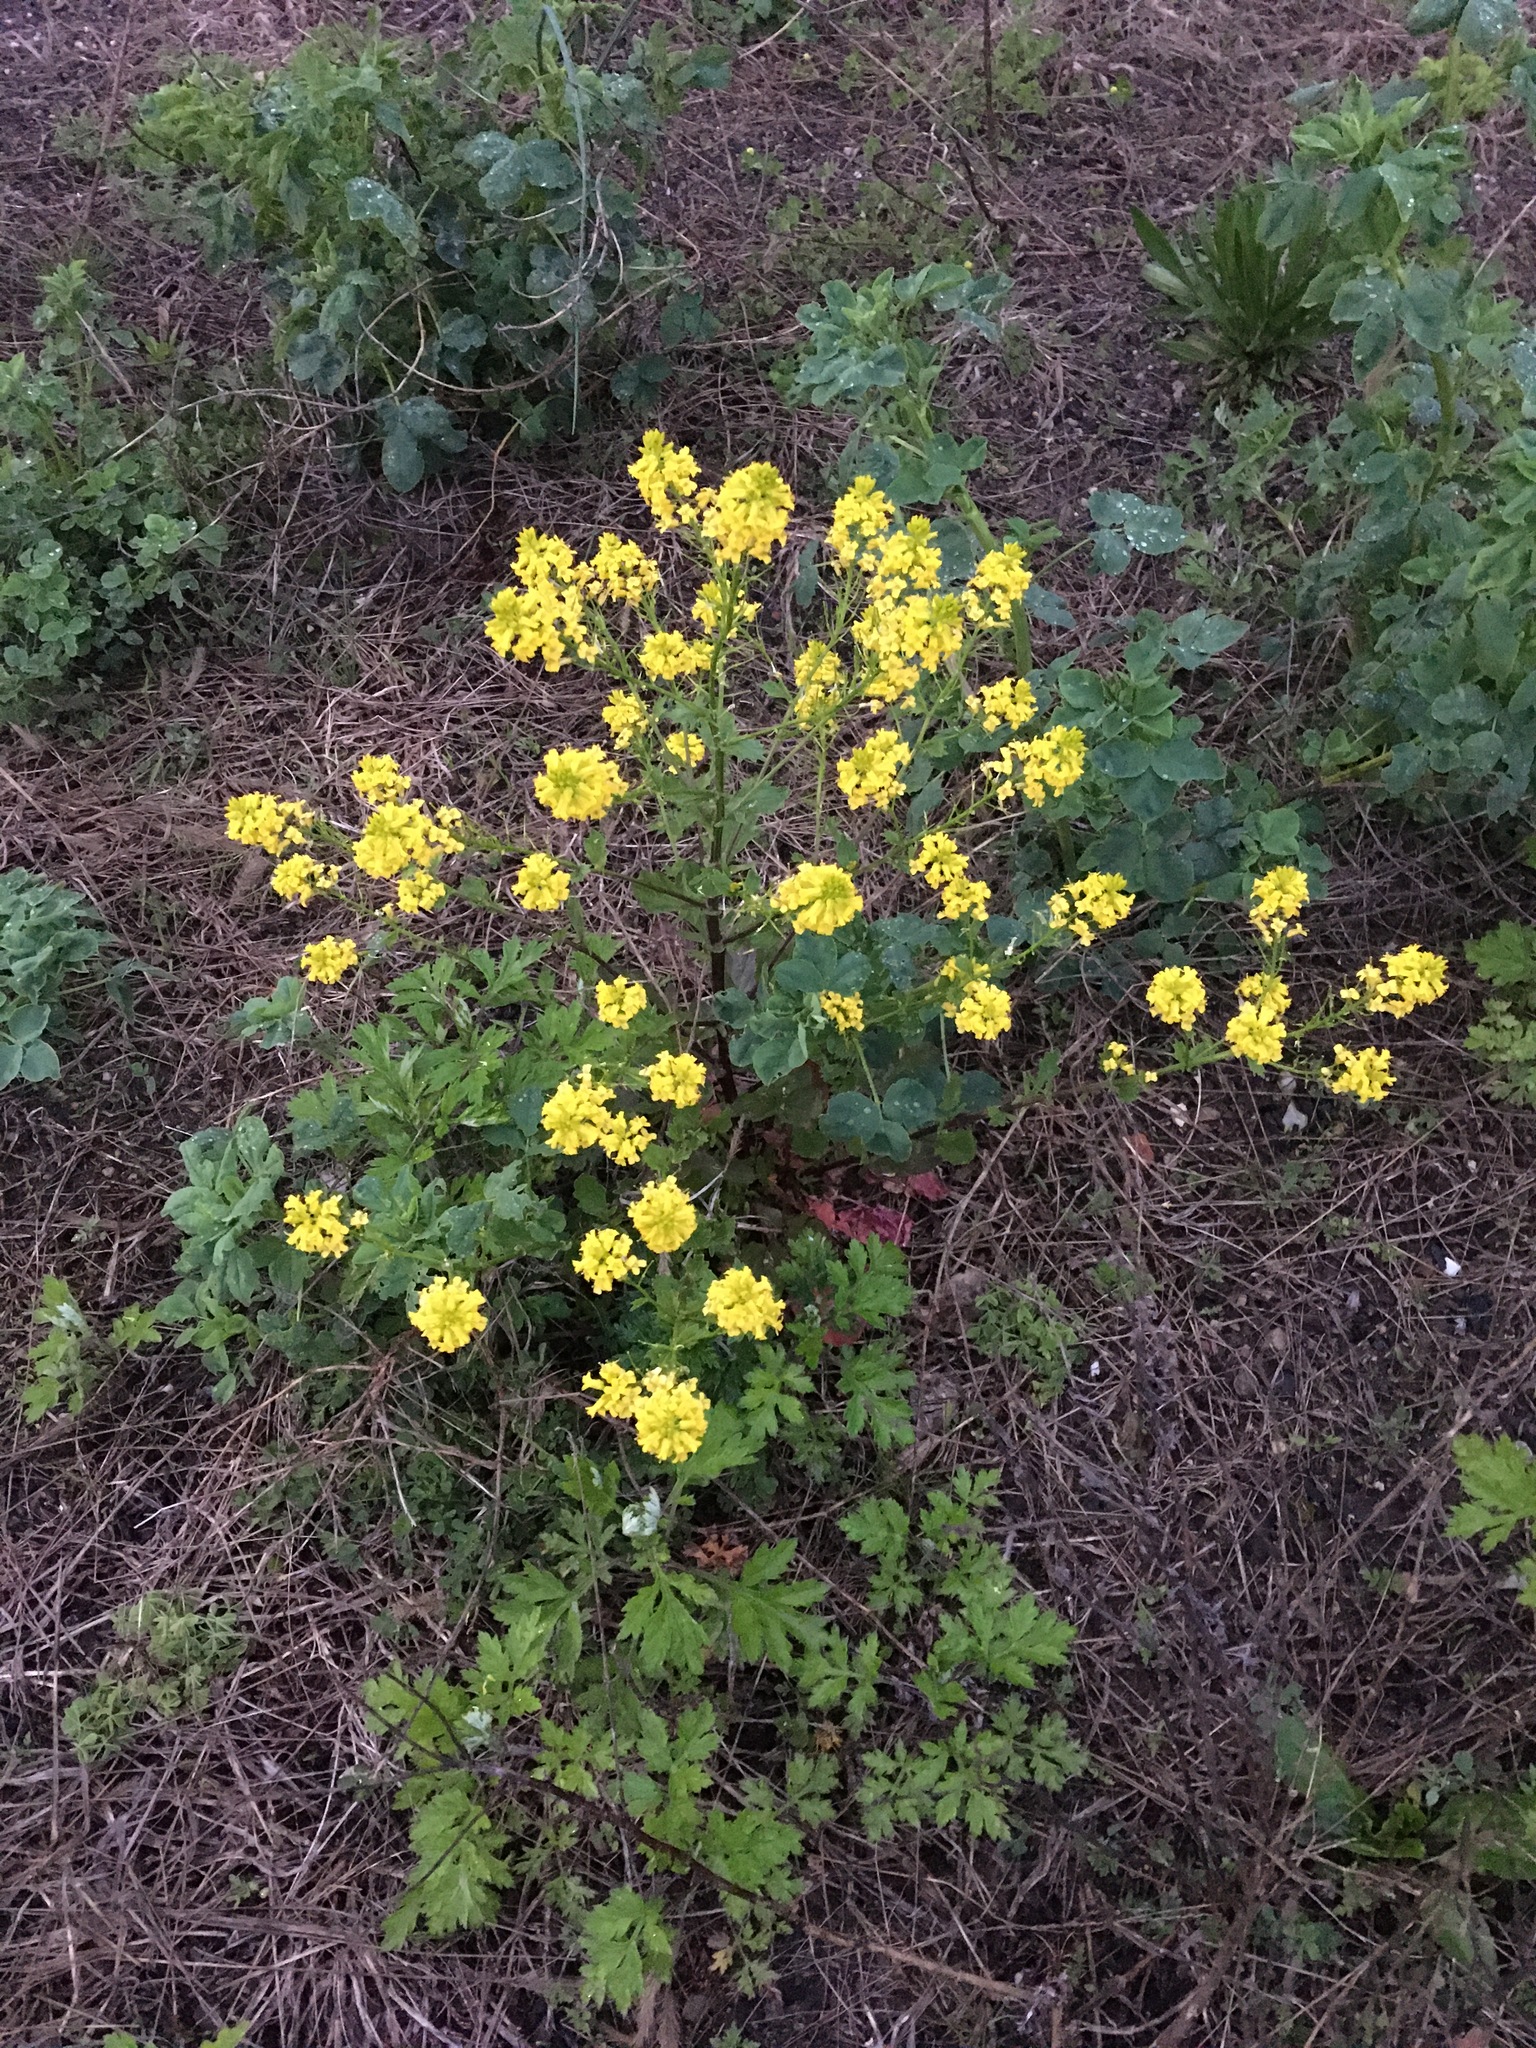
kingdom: Plantae
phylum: Tracheophyta
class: Magnoliopsida
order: Brassicales
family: Brassicaceae
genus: Barbarea
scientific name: Barbarea vulgaris
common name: Cressy-greens
